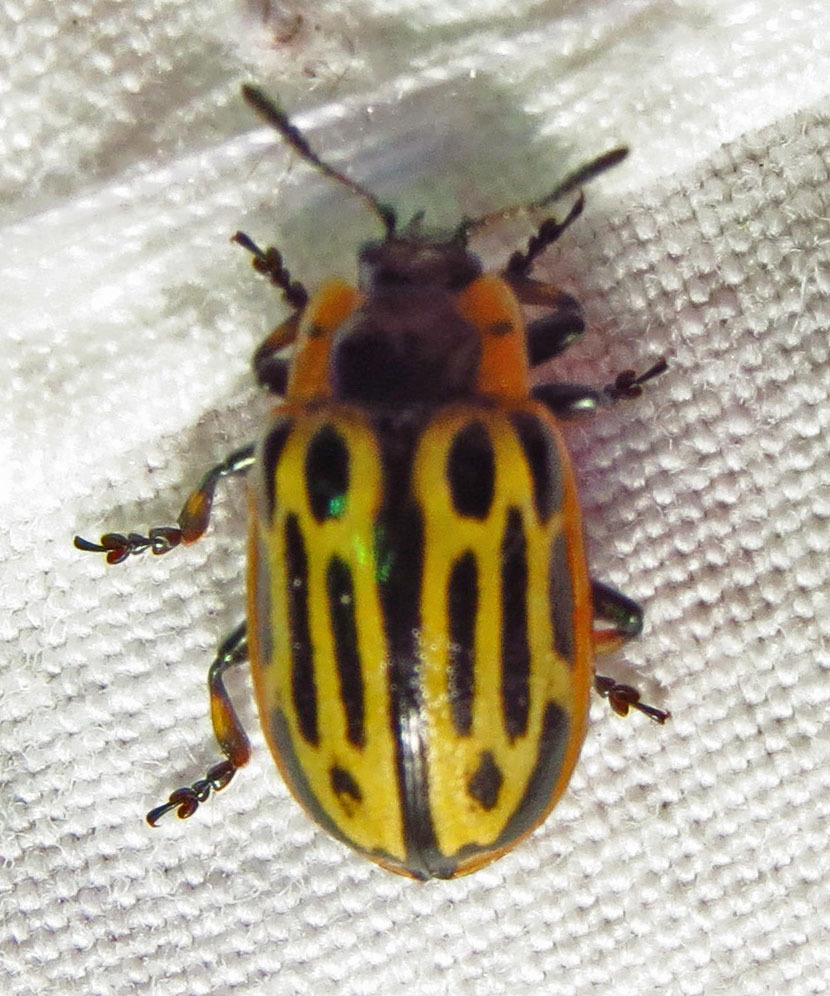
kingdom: Animalia
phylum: Arthropoda
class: Insecta
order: Coleoptera
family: Chrysomelidae
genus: Aethiopocassis
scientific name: Aethiopocassis scripta
